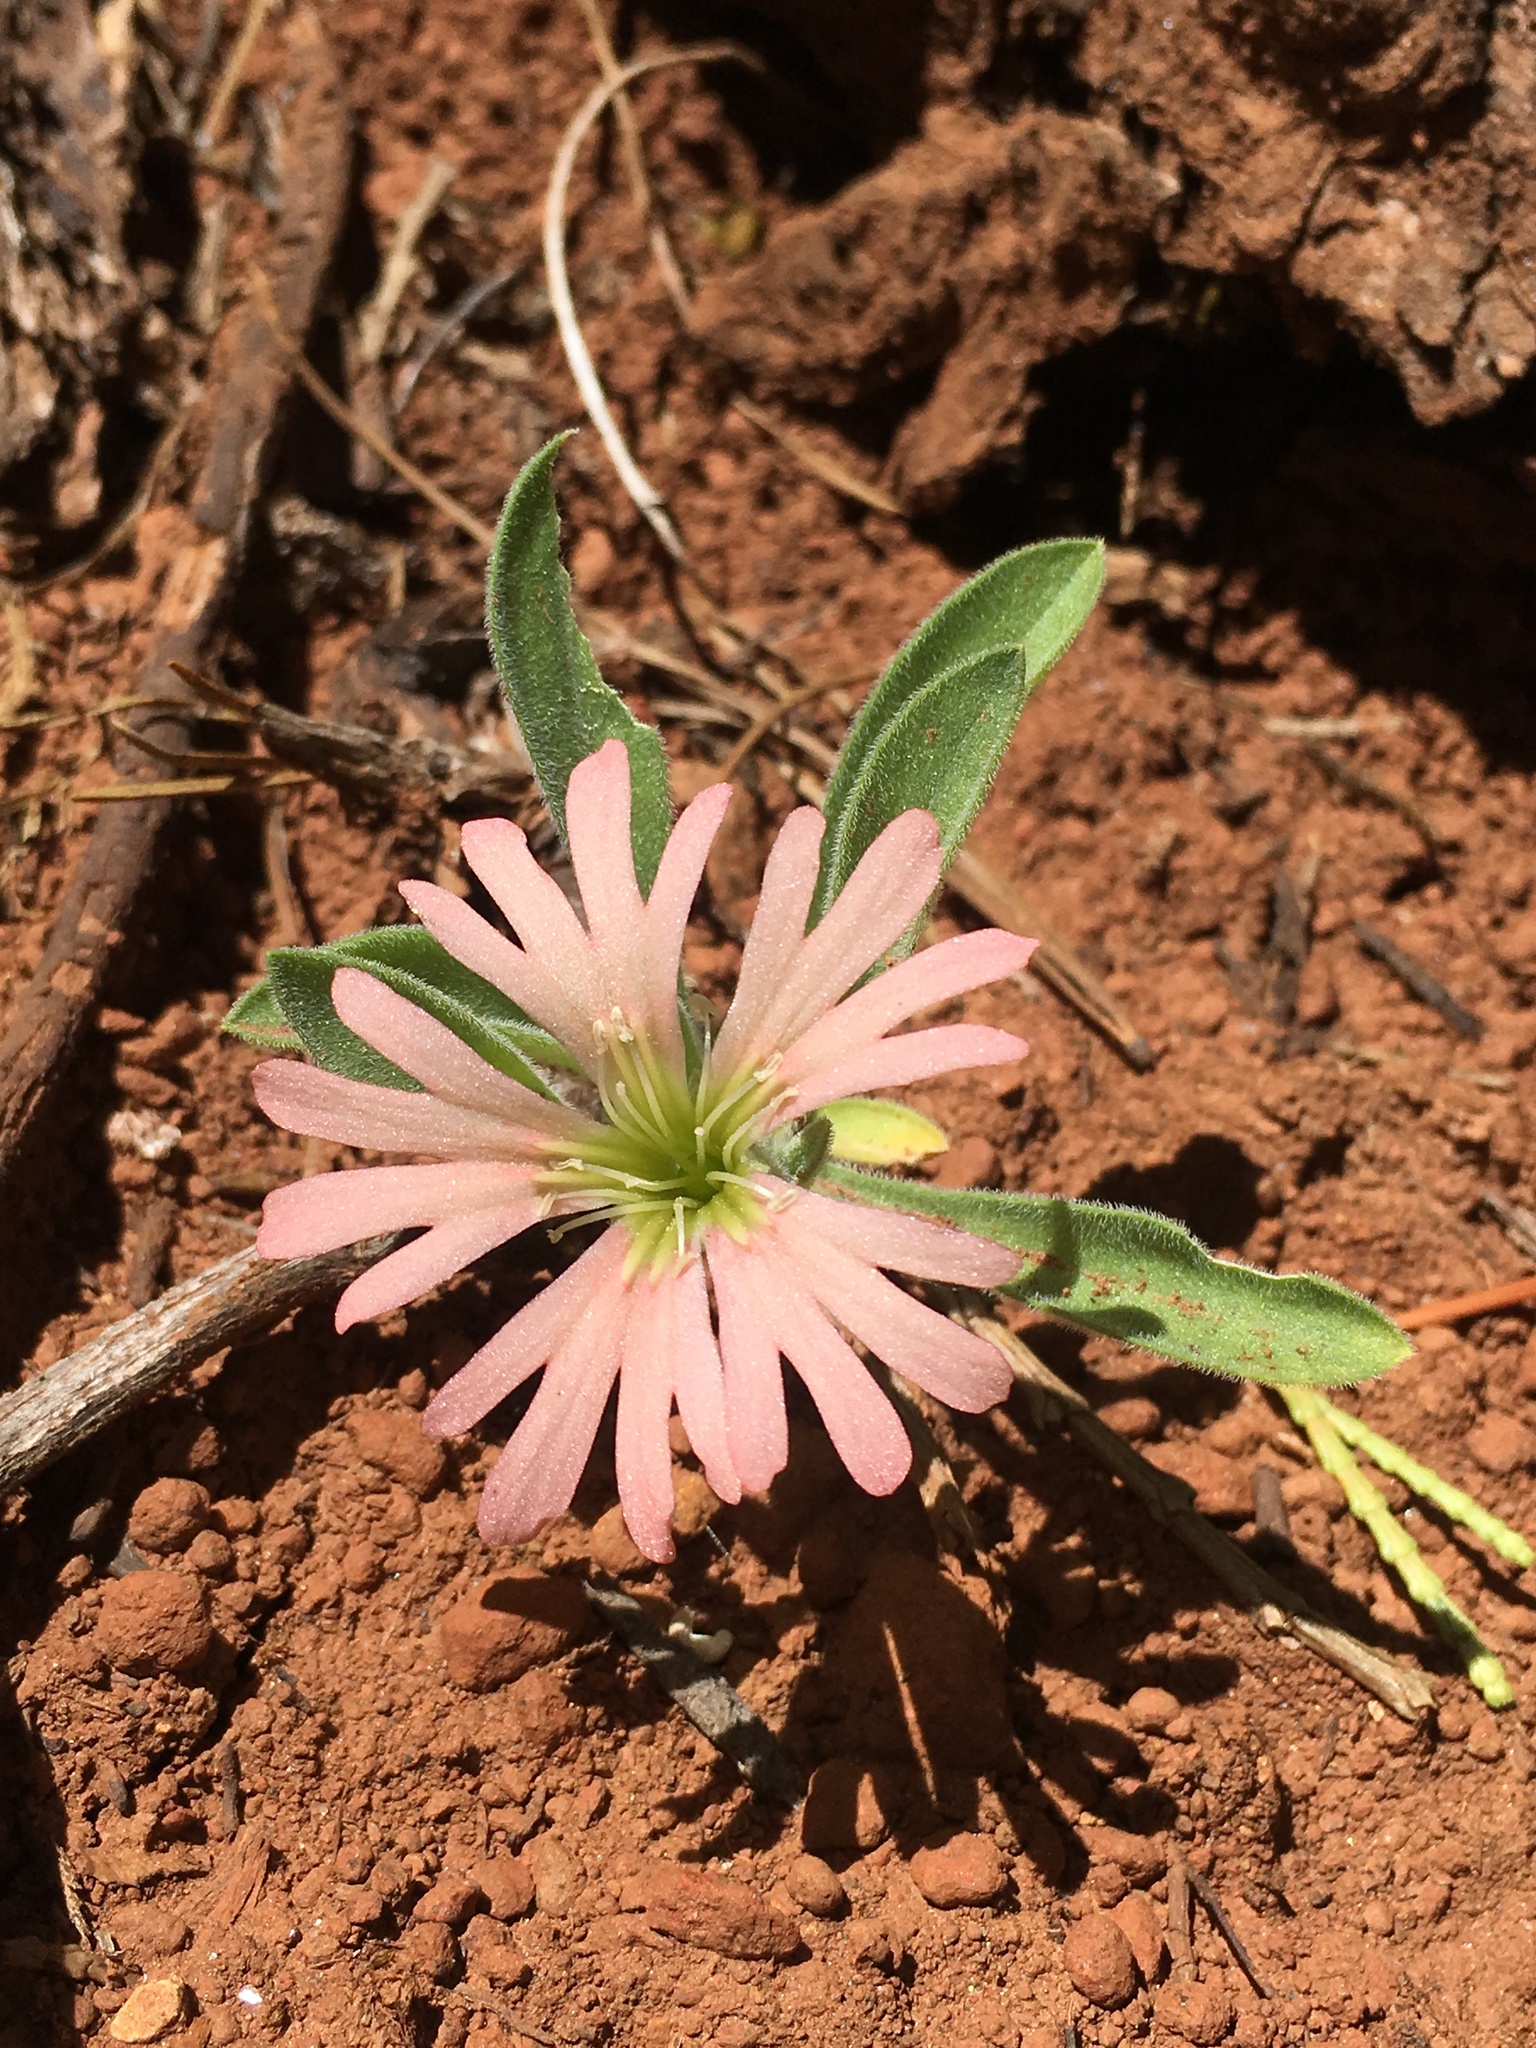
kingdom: Plantae
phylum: Tracheophyta
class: Magnoliopsida
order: Caryophyllales
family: Caryophyllaceae
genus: Silene
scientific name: Silene salmonacea
